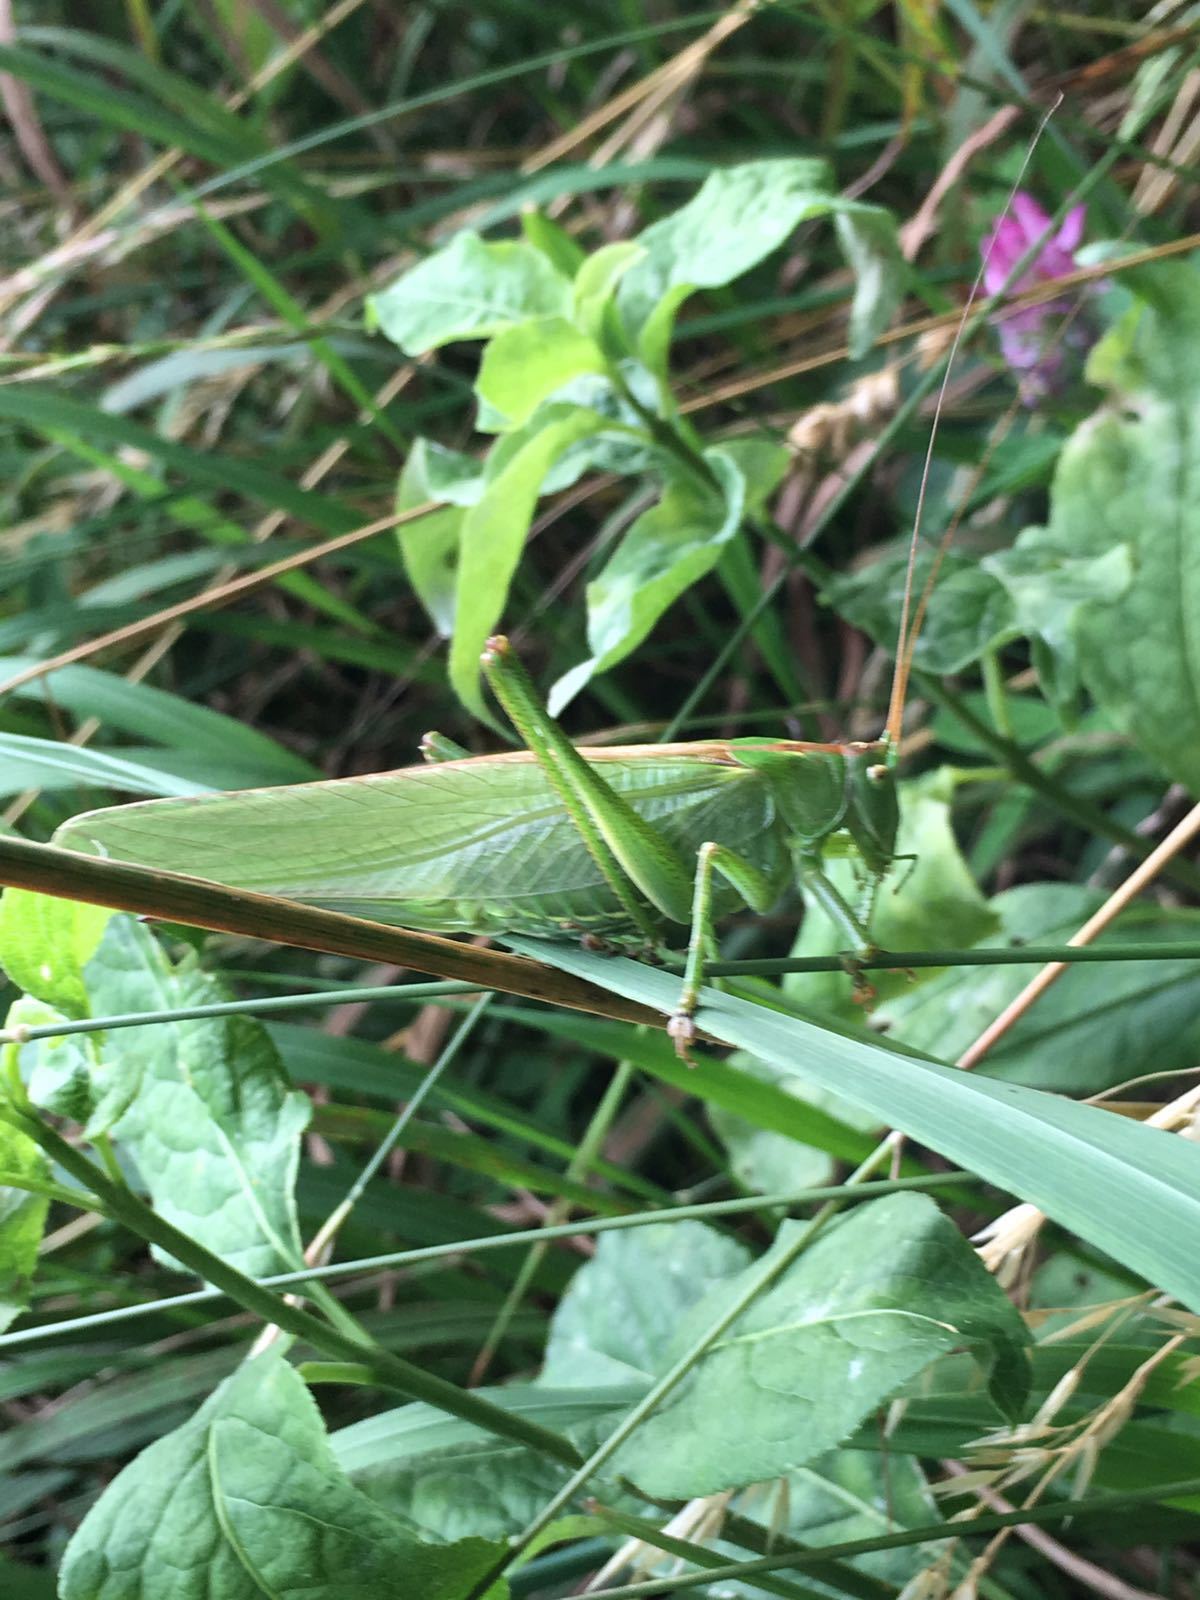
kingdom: Animalia
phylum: Arthropoda
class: Insecta
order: Orthoptera
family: Tettigoniidae
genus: Tettigonia
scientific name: Tettigonia viridissima
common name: Great green bush-cricket
